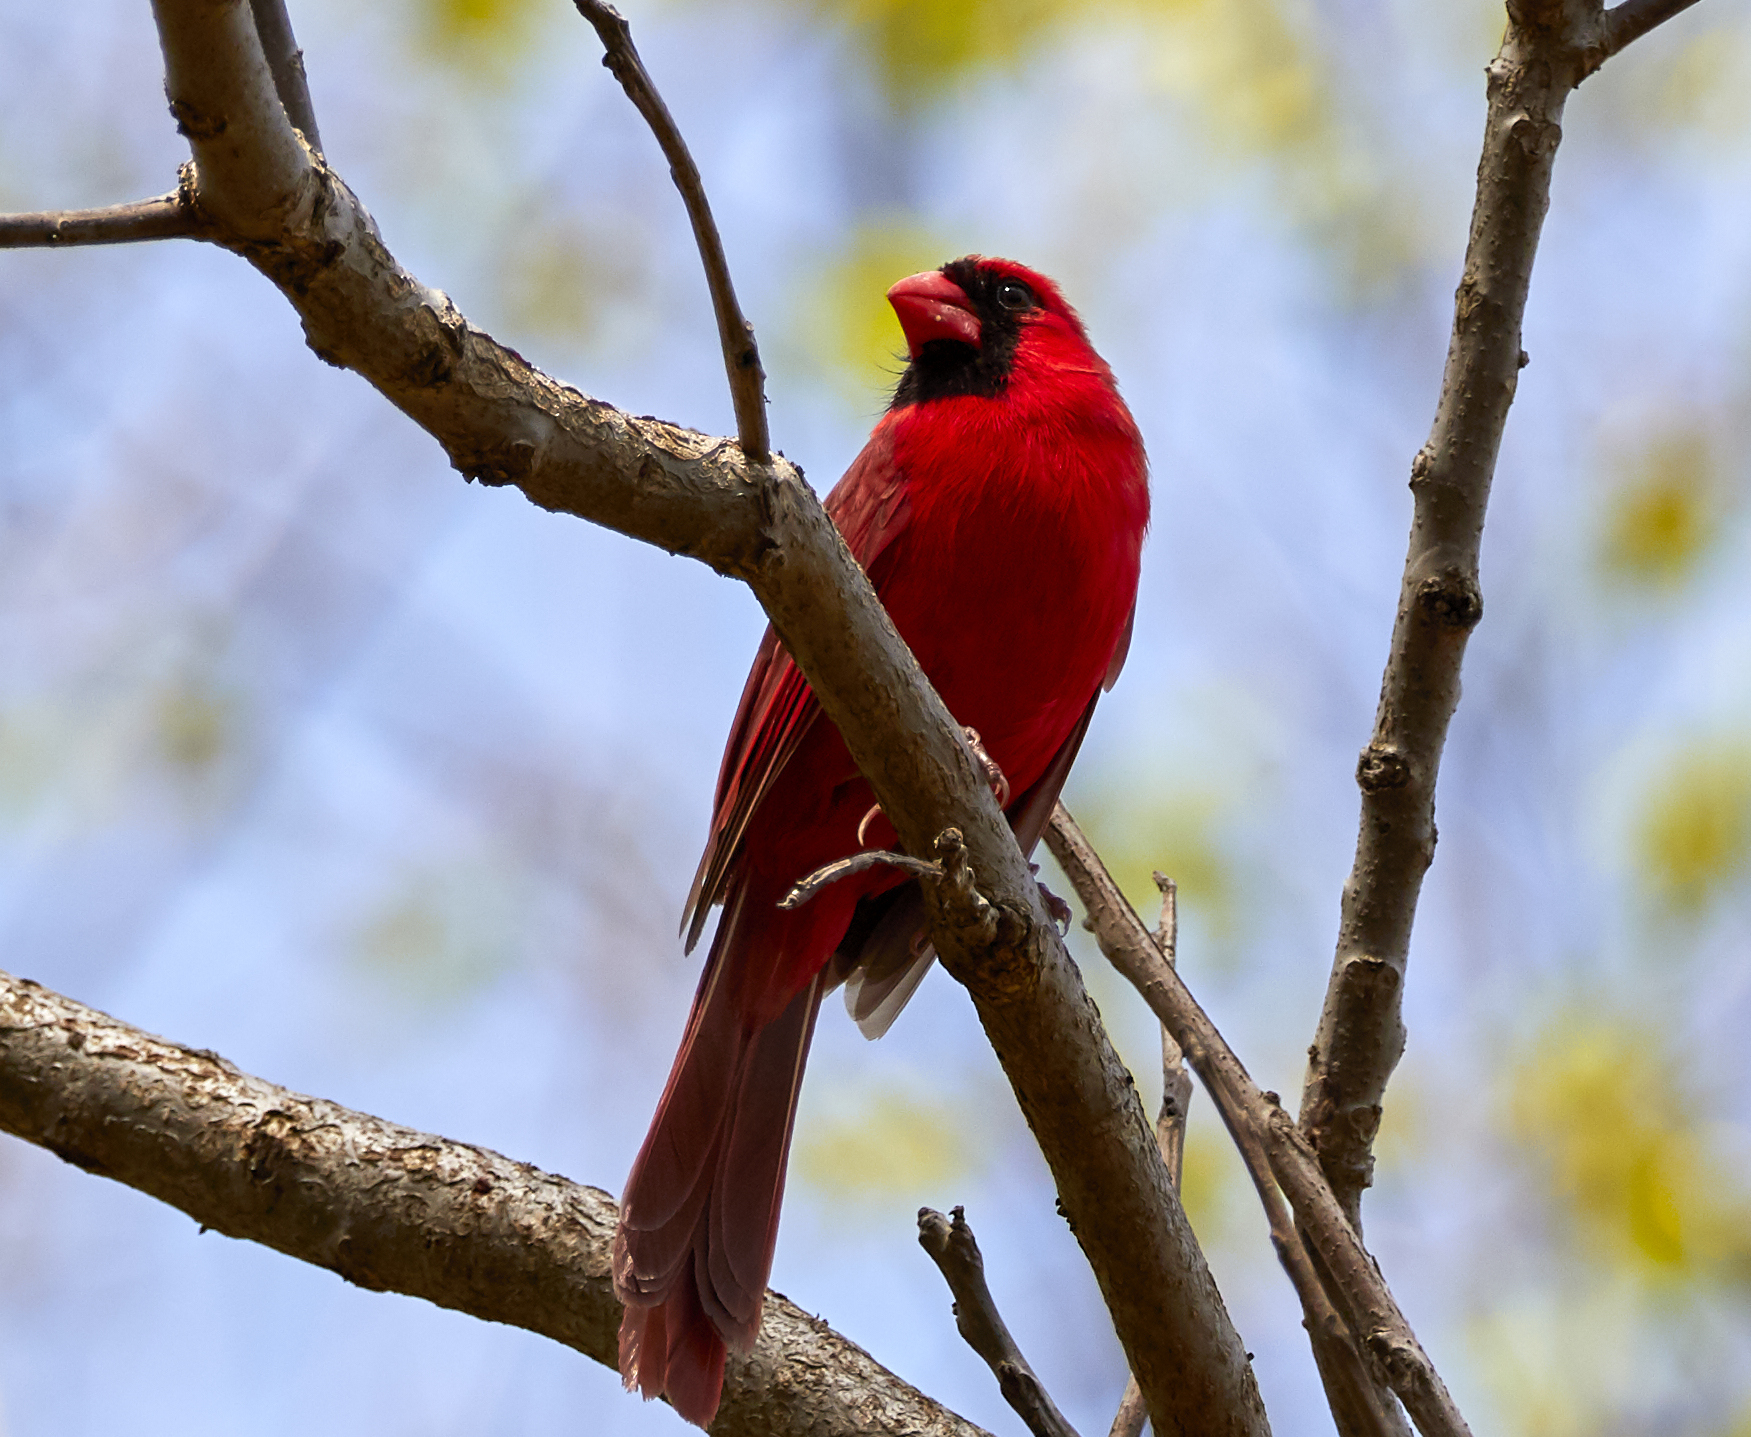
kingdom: Animalia
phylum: Chordata
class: Aves
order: Passeriformes
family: Cardinalidae
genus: Cardinalis
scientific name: Cardinalis cardinalis
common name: Northern cardinal
